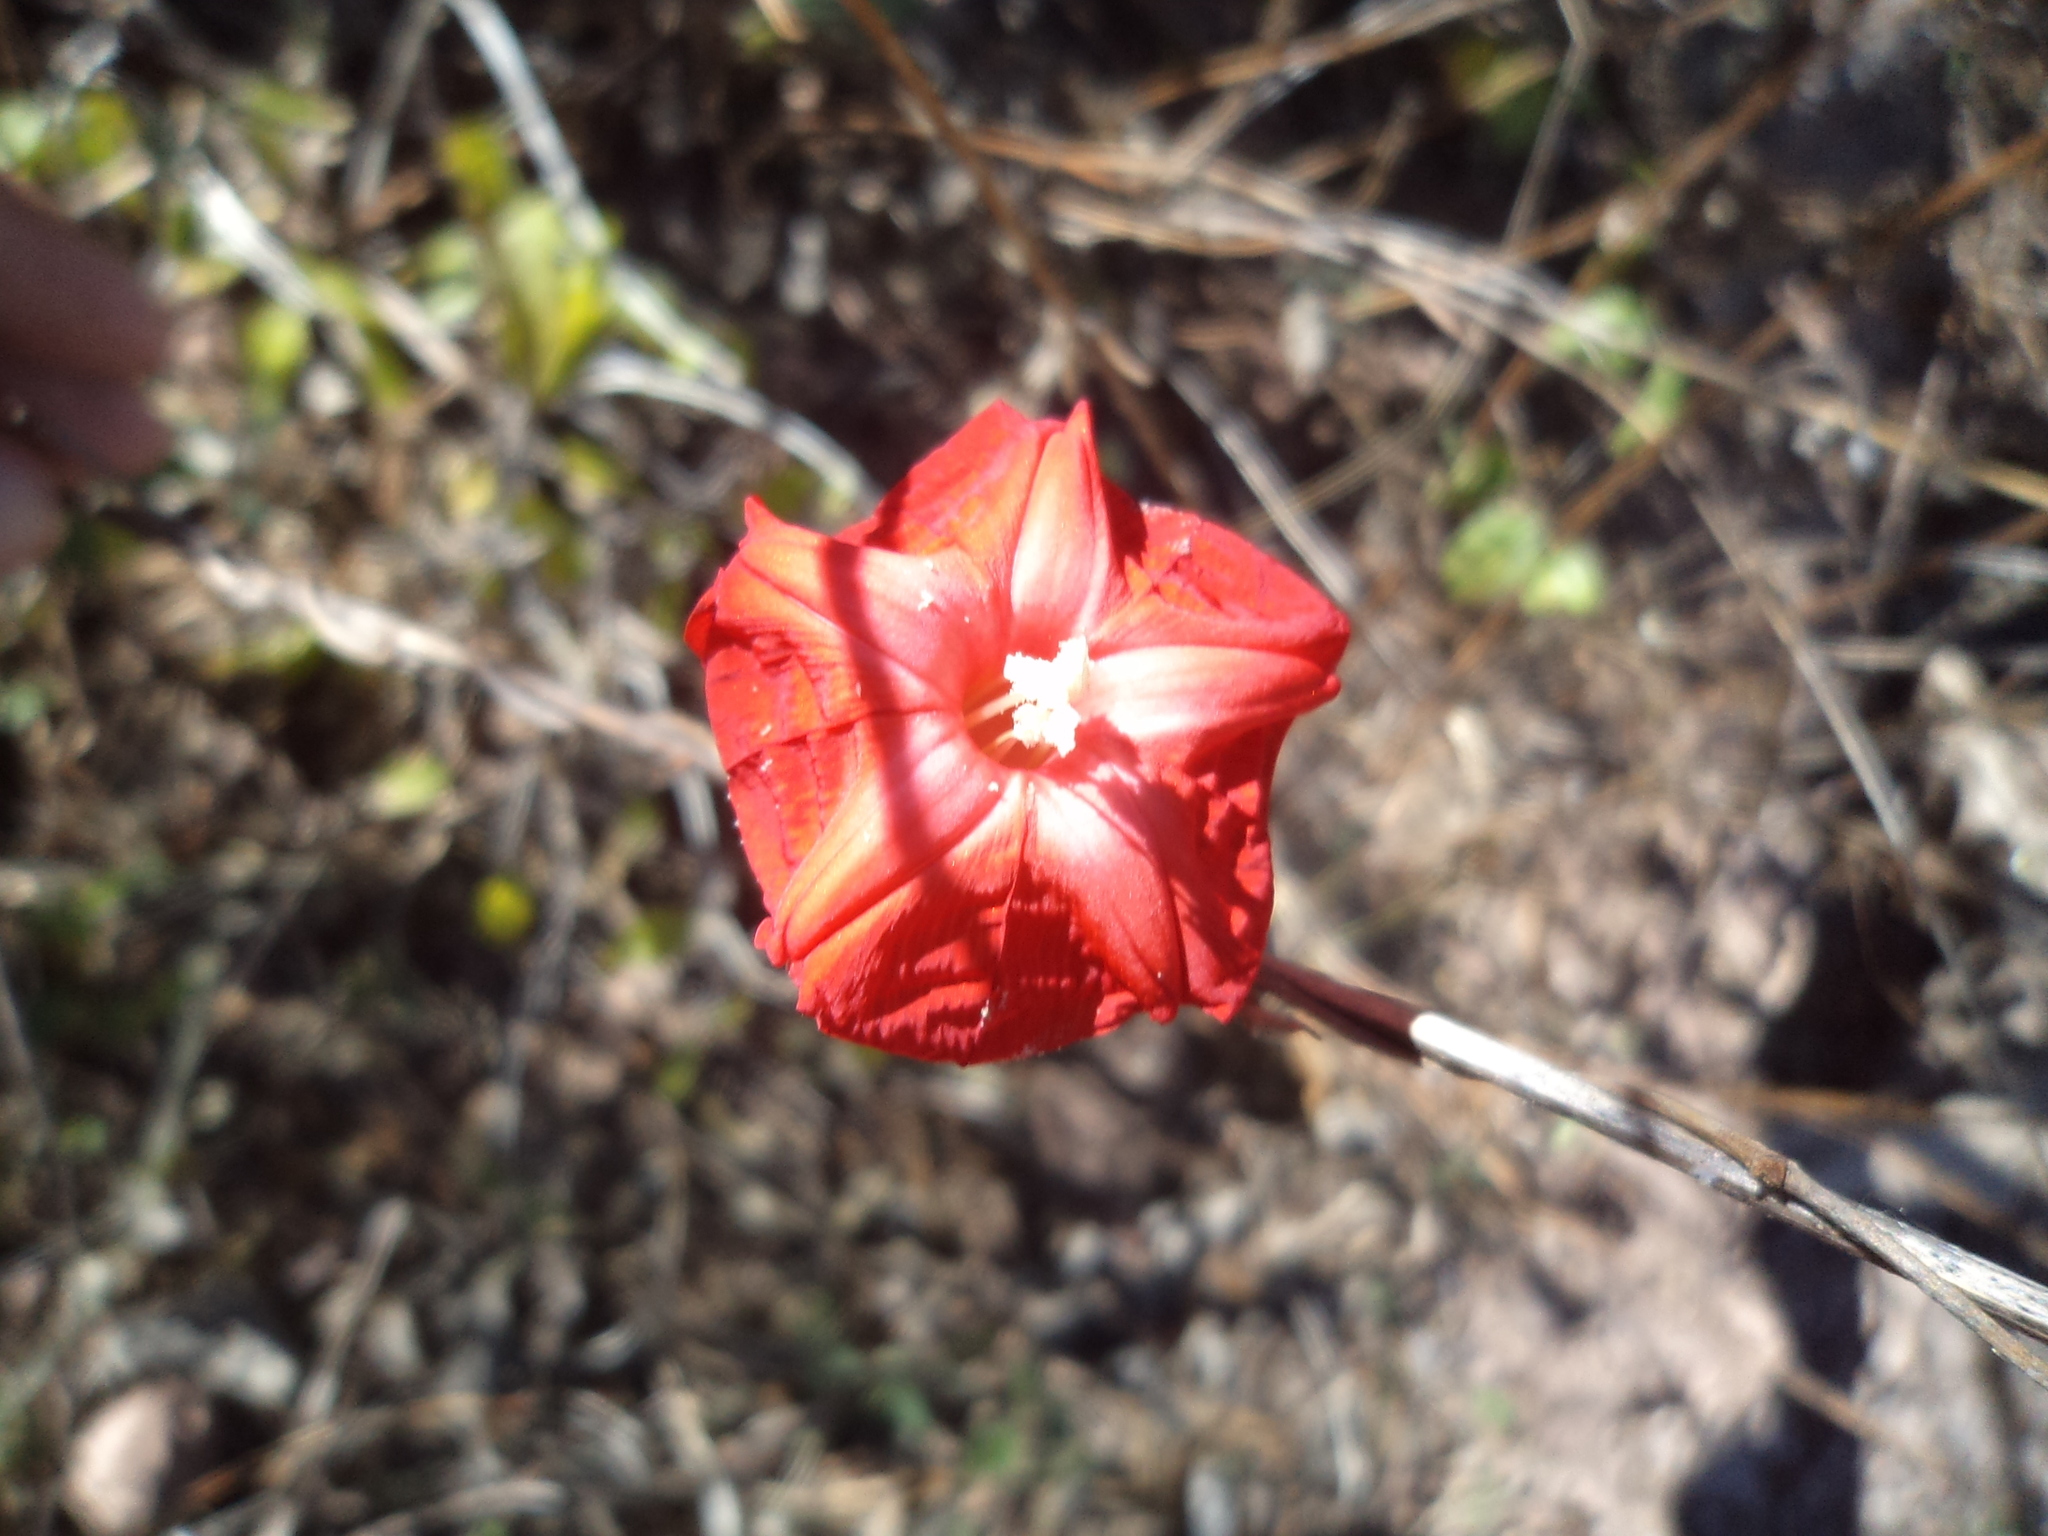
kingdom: Plantae
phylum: Tracheophyta
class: Magnoliopsida
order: Solanales
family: Convolvulaceae
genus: Ipomoea
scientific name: Ipomoea conzattii
